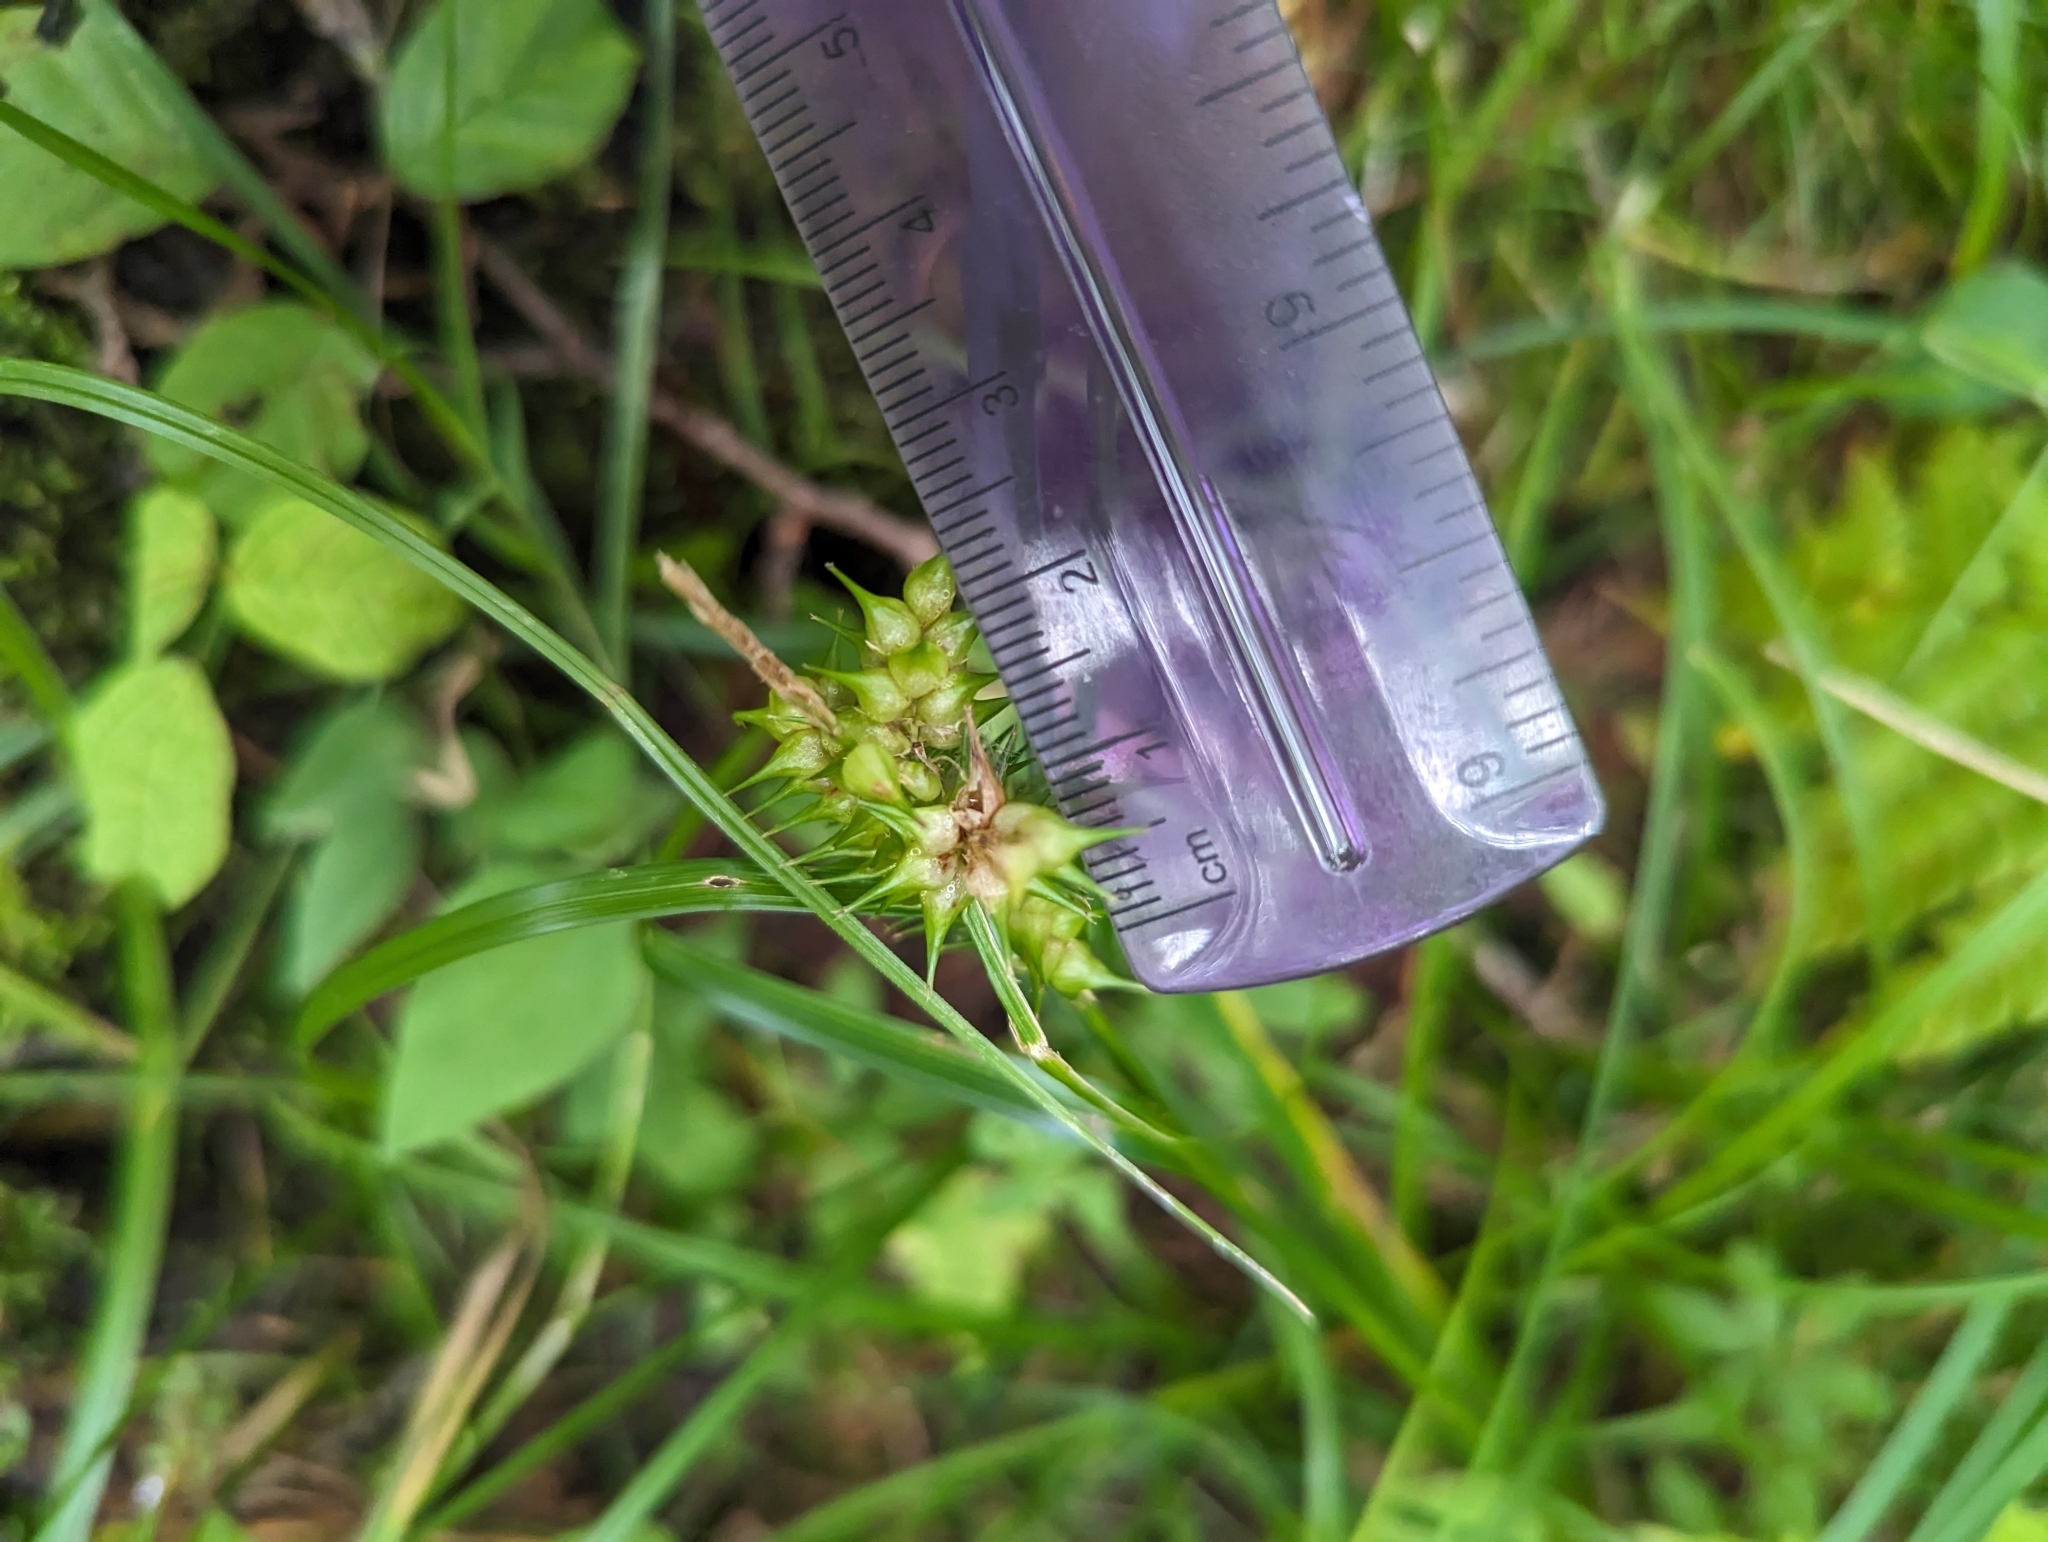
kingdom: Plantae
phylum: Tracheophyta
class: Liliopsida
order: Poales
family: Cyperaceae
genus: Carex
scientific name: Carex retrorsa
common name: Knot-sheath sedge
